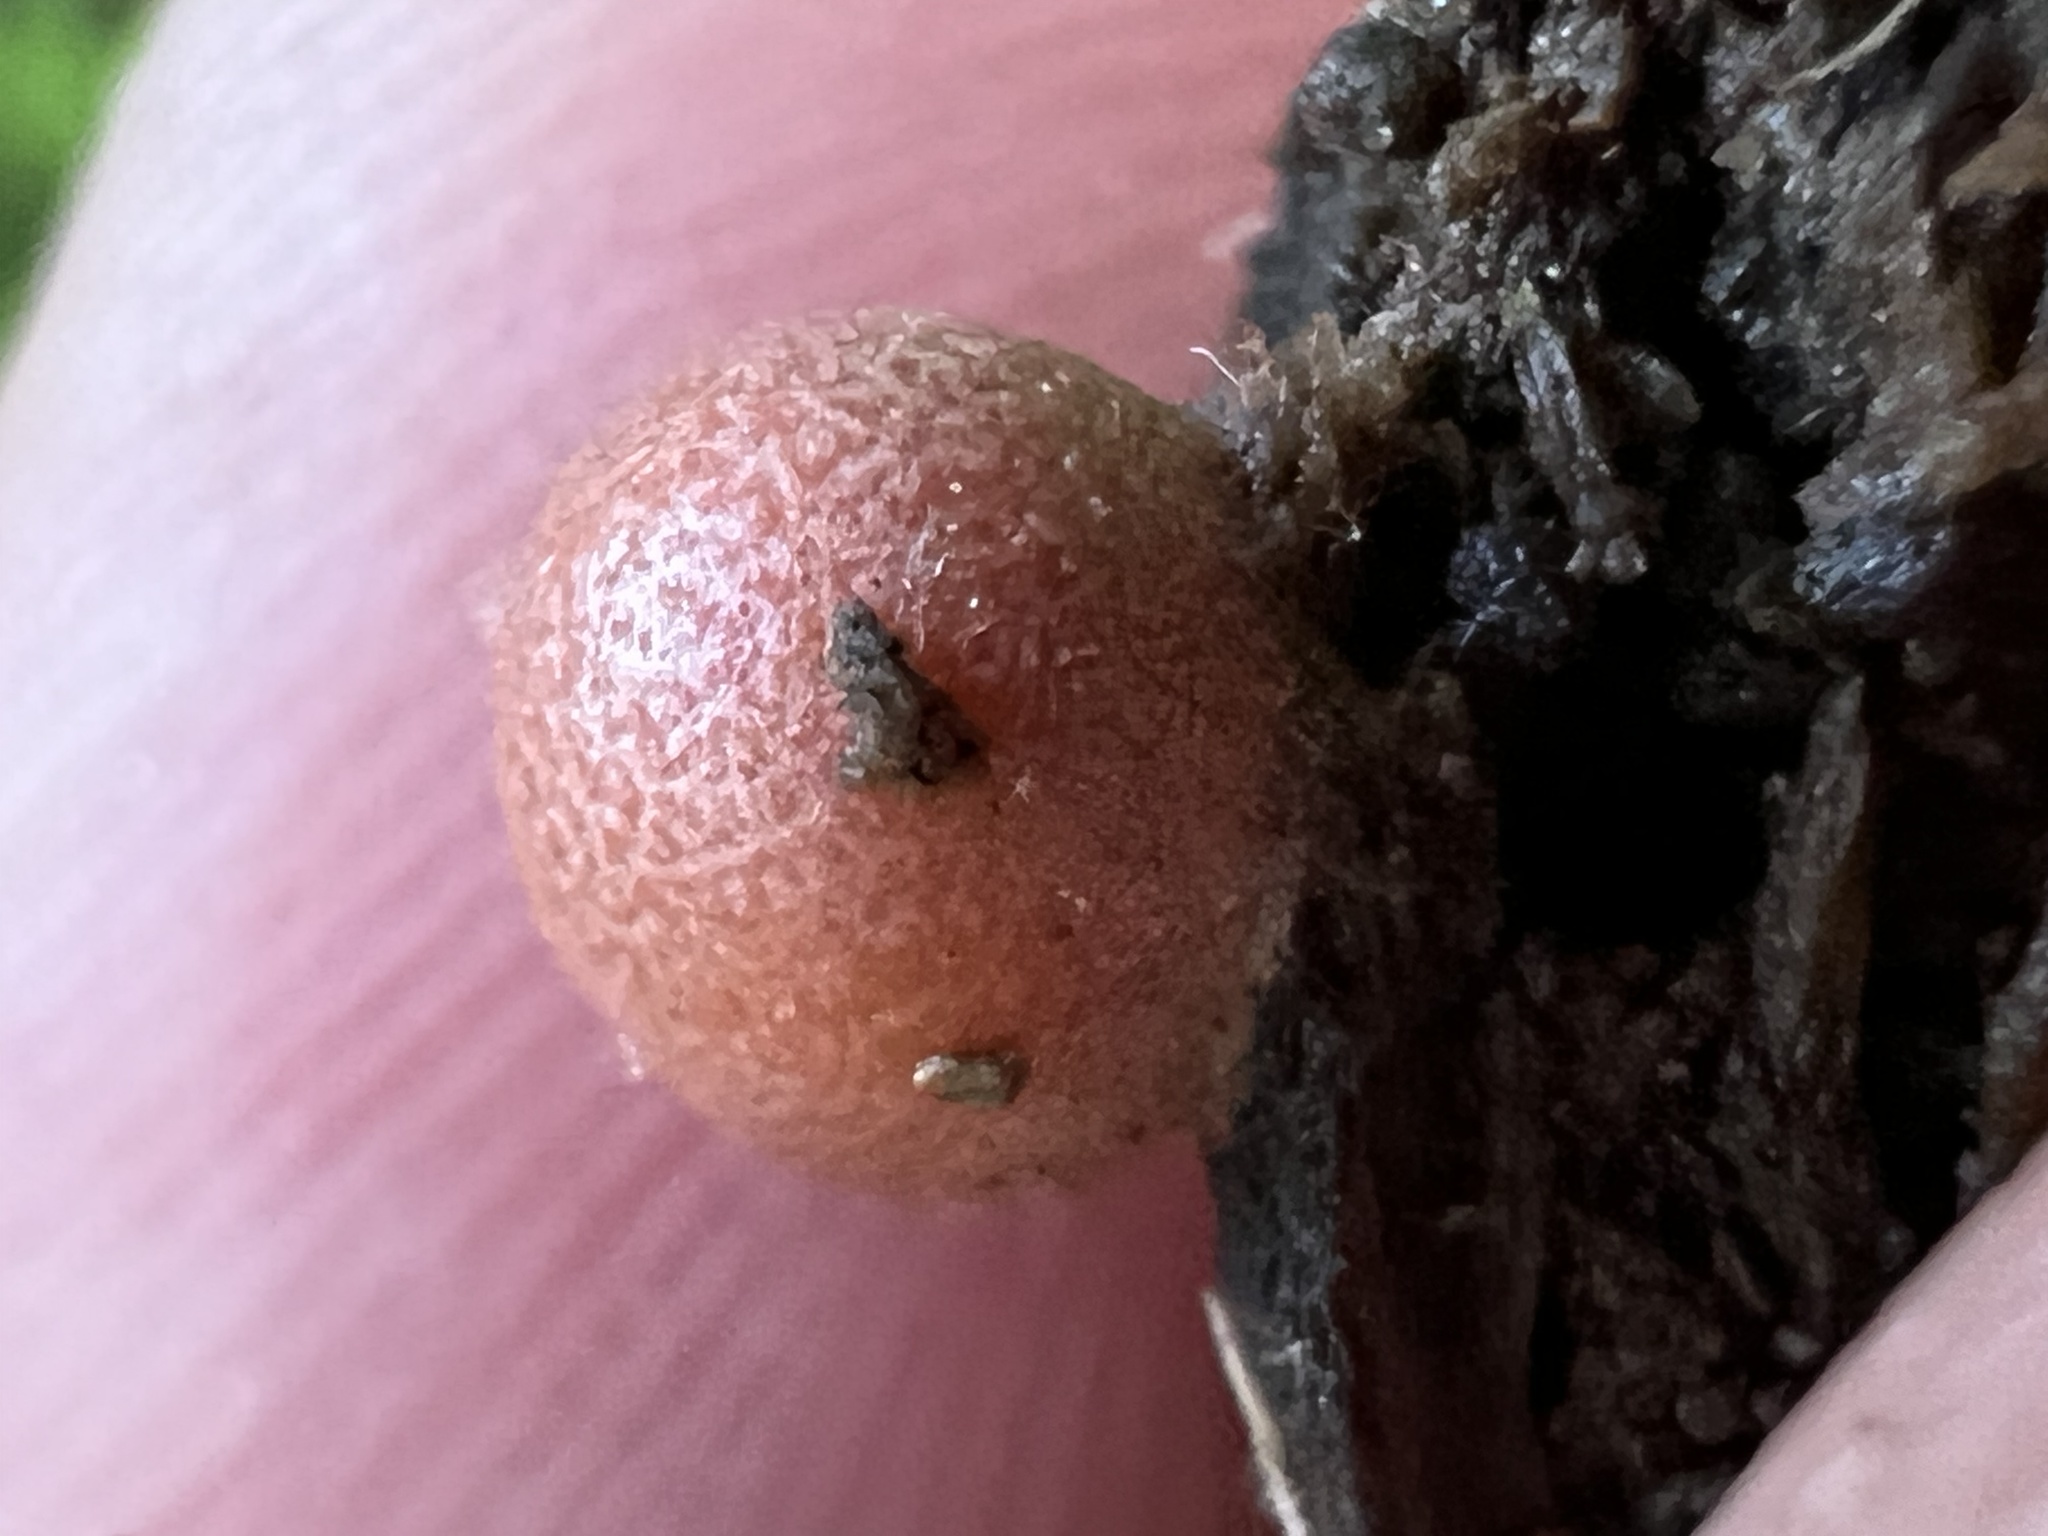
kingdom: Protozoa
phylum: Mycetozoa
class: Myxomycetes
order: Cribrariales
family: Tubiferaceae
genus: Lycogala
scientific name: Lycogala epidendrum
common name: Wolf's milk
